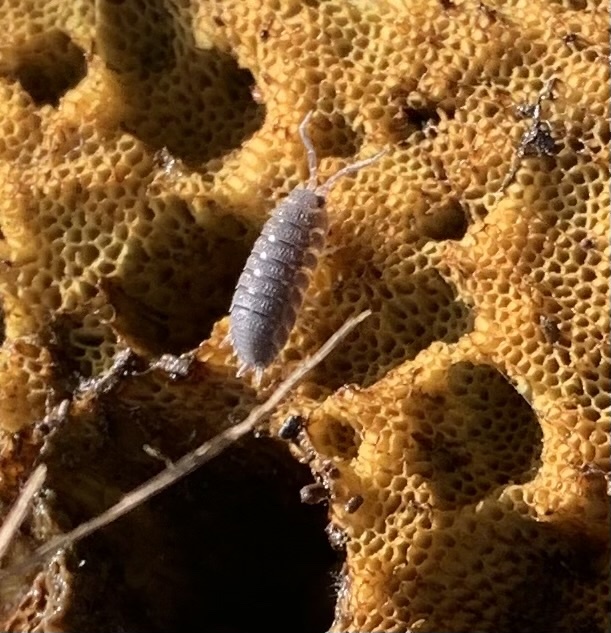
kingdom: Animalia
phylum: Arthropoda
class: Malacostraca
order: Isopoda
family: Porcellionidae
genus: Porcellio
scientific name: Porcellio scaber
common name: Common rough woodlouse
